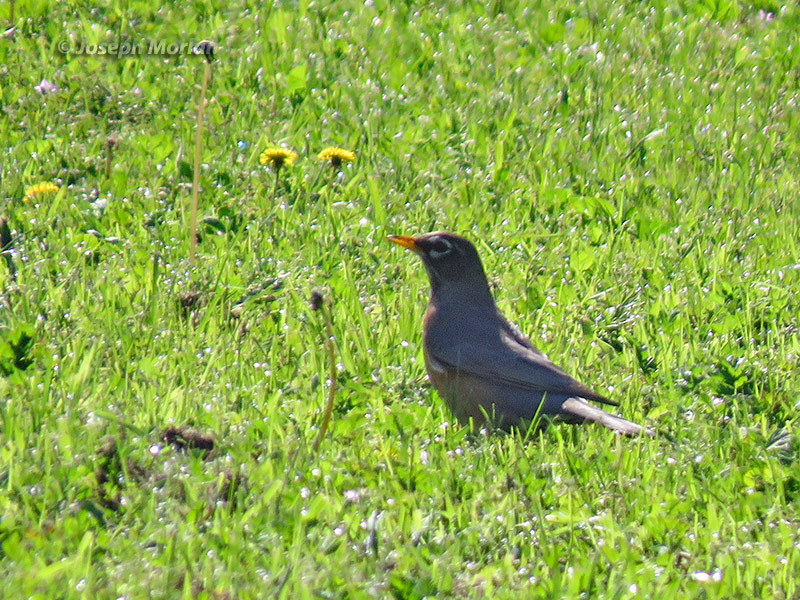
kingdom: Animalia
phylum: Chordata
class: Aves
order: Passeriformes
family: Turdidae
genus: Turdus
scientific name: Turdus migratorius
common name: American robin
